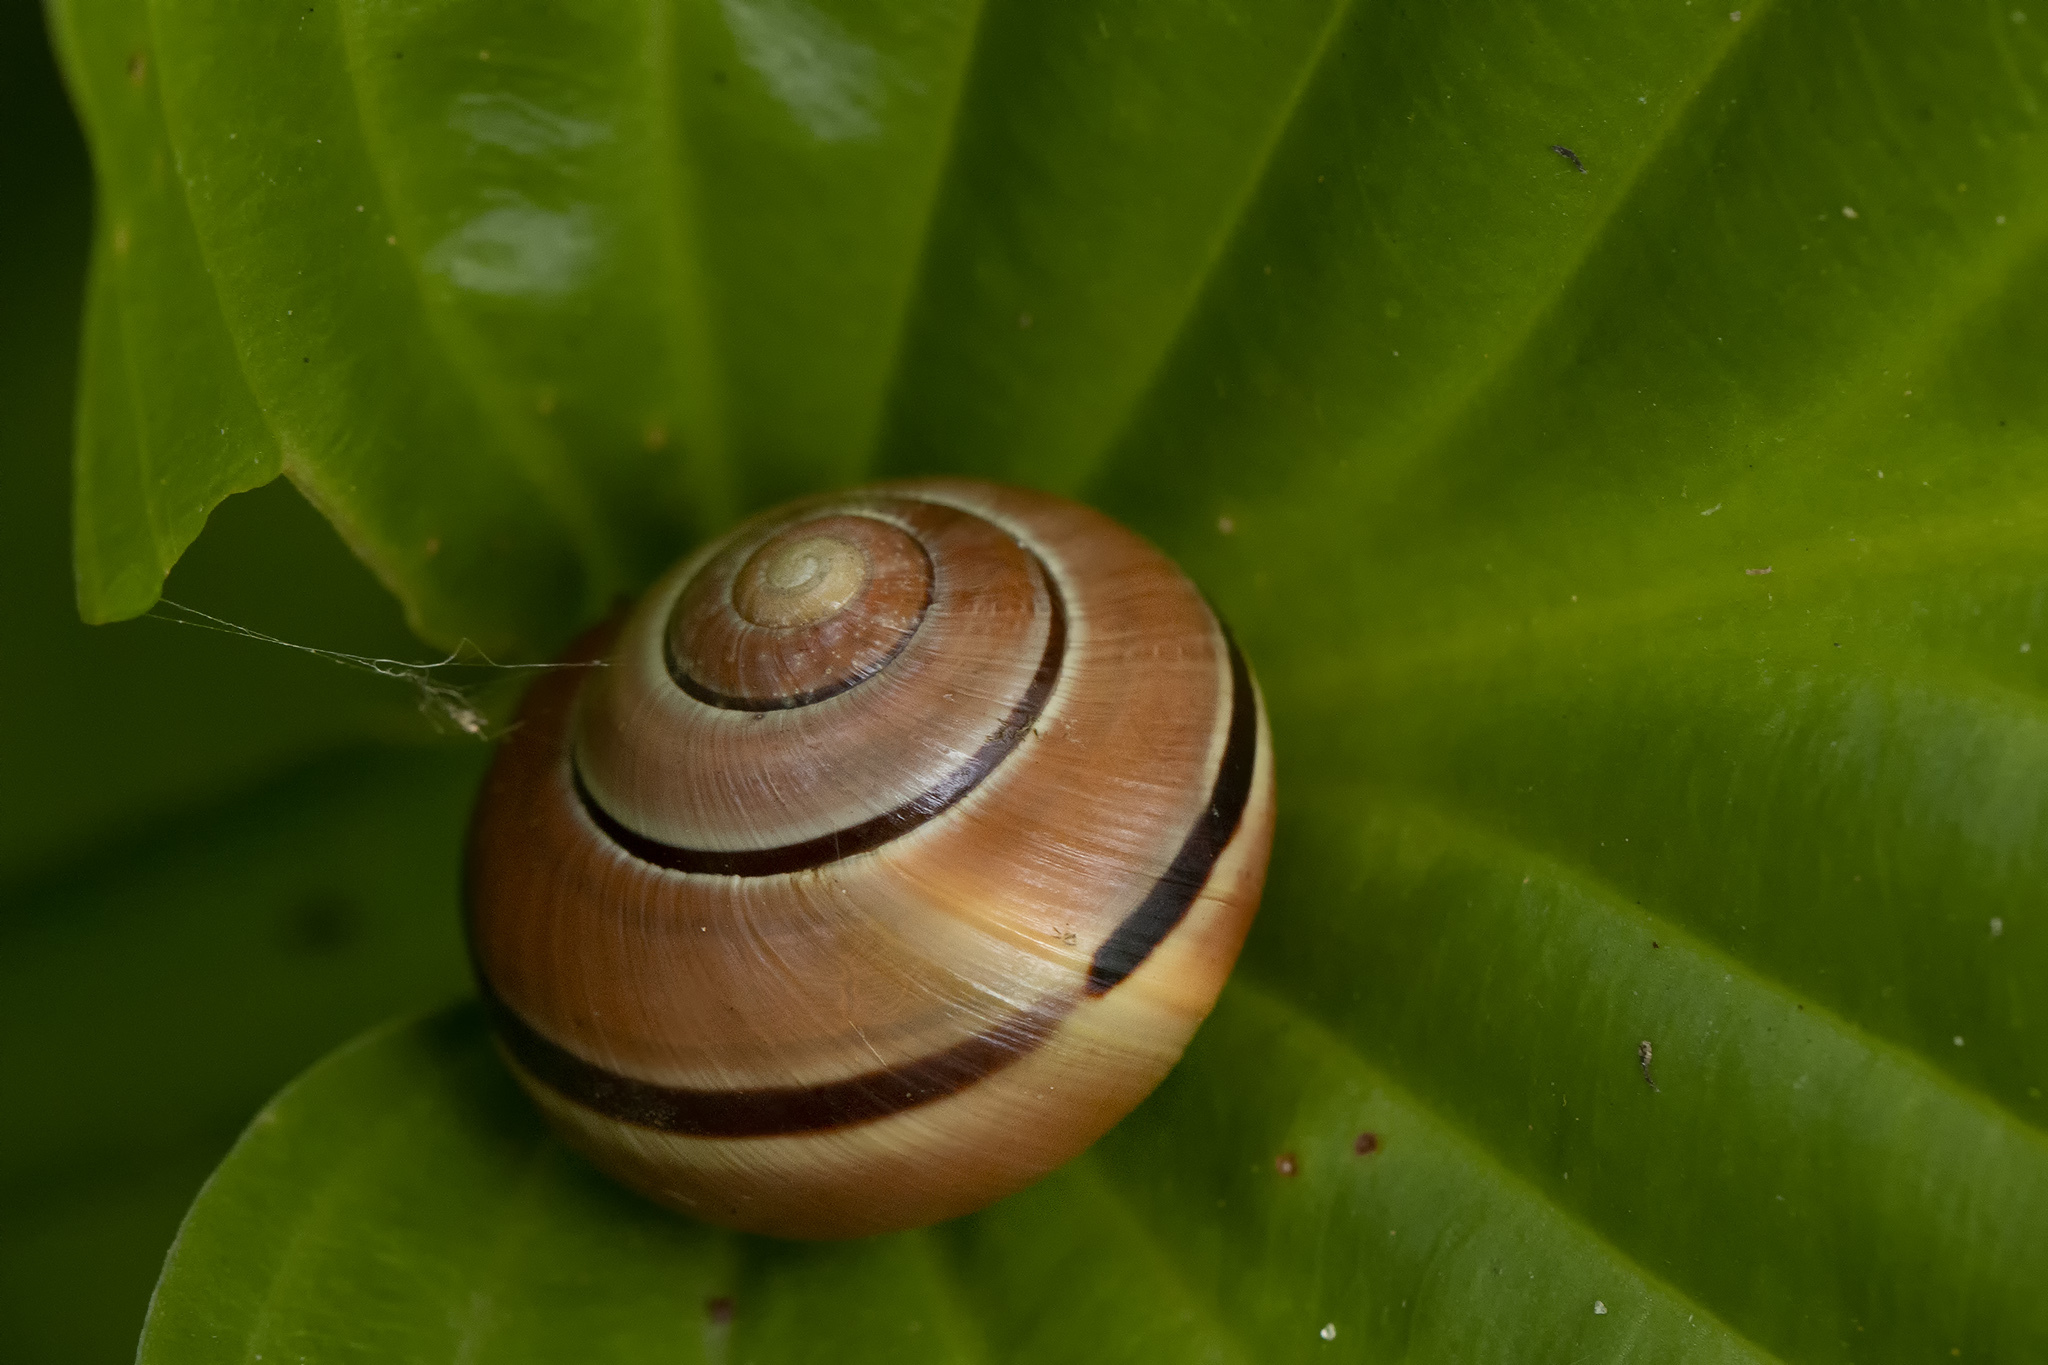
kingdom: Animalia
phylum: Mollusca
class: Gastropoda
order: Stylommatophora
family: Helicidae
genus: Cepaea
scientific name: Cepaea nemoralis
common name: Grovesnail
